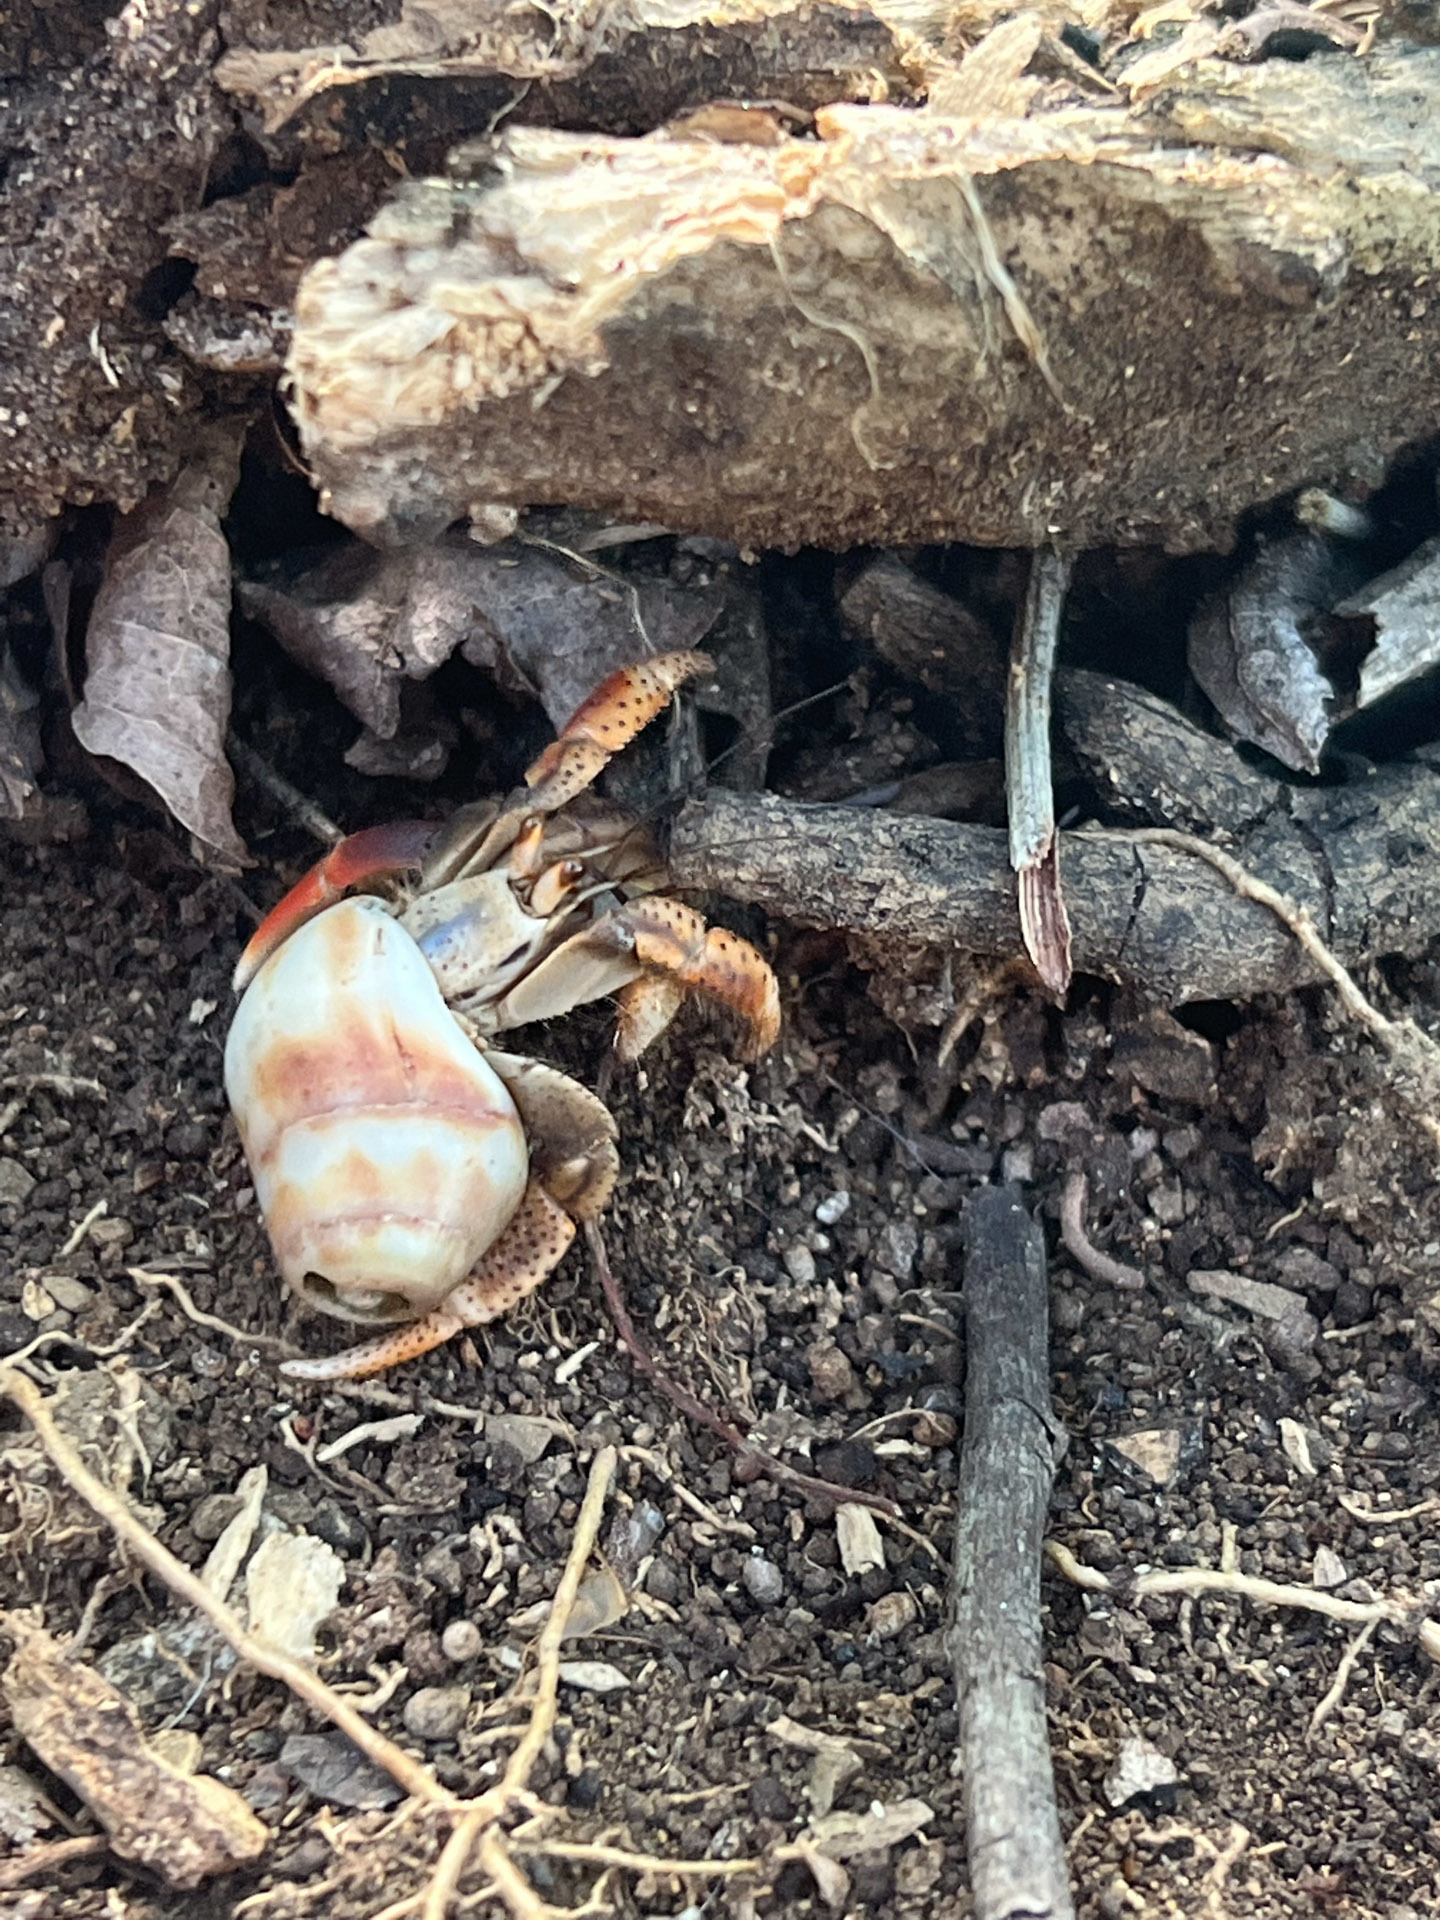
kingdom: Animalia
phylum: Arthropoda
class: Malacostraca
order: Decapoda
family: Coenobitidae
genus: Coenobita
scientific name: Coenobita clypeatus
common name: Caribbean hermit crab
